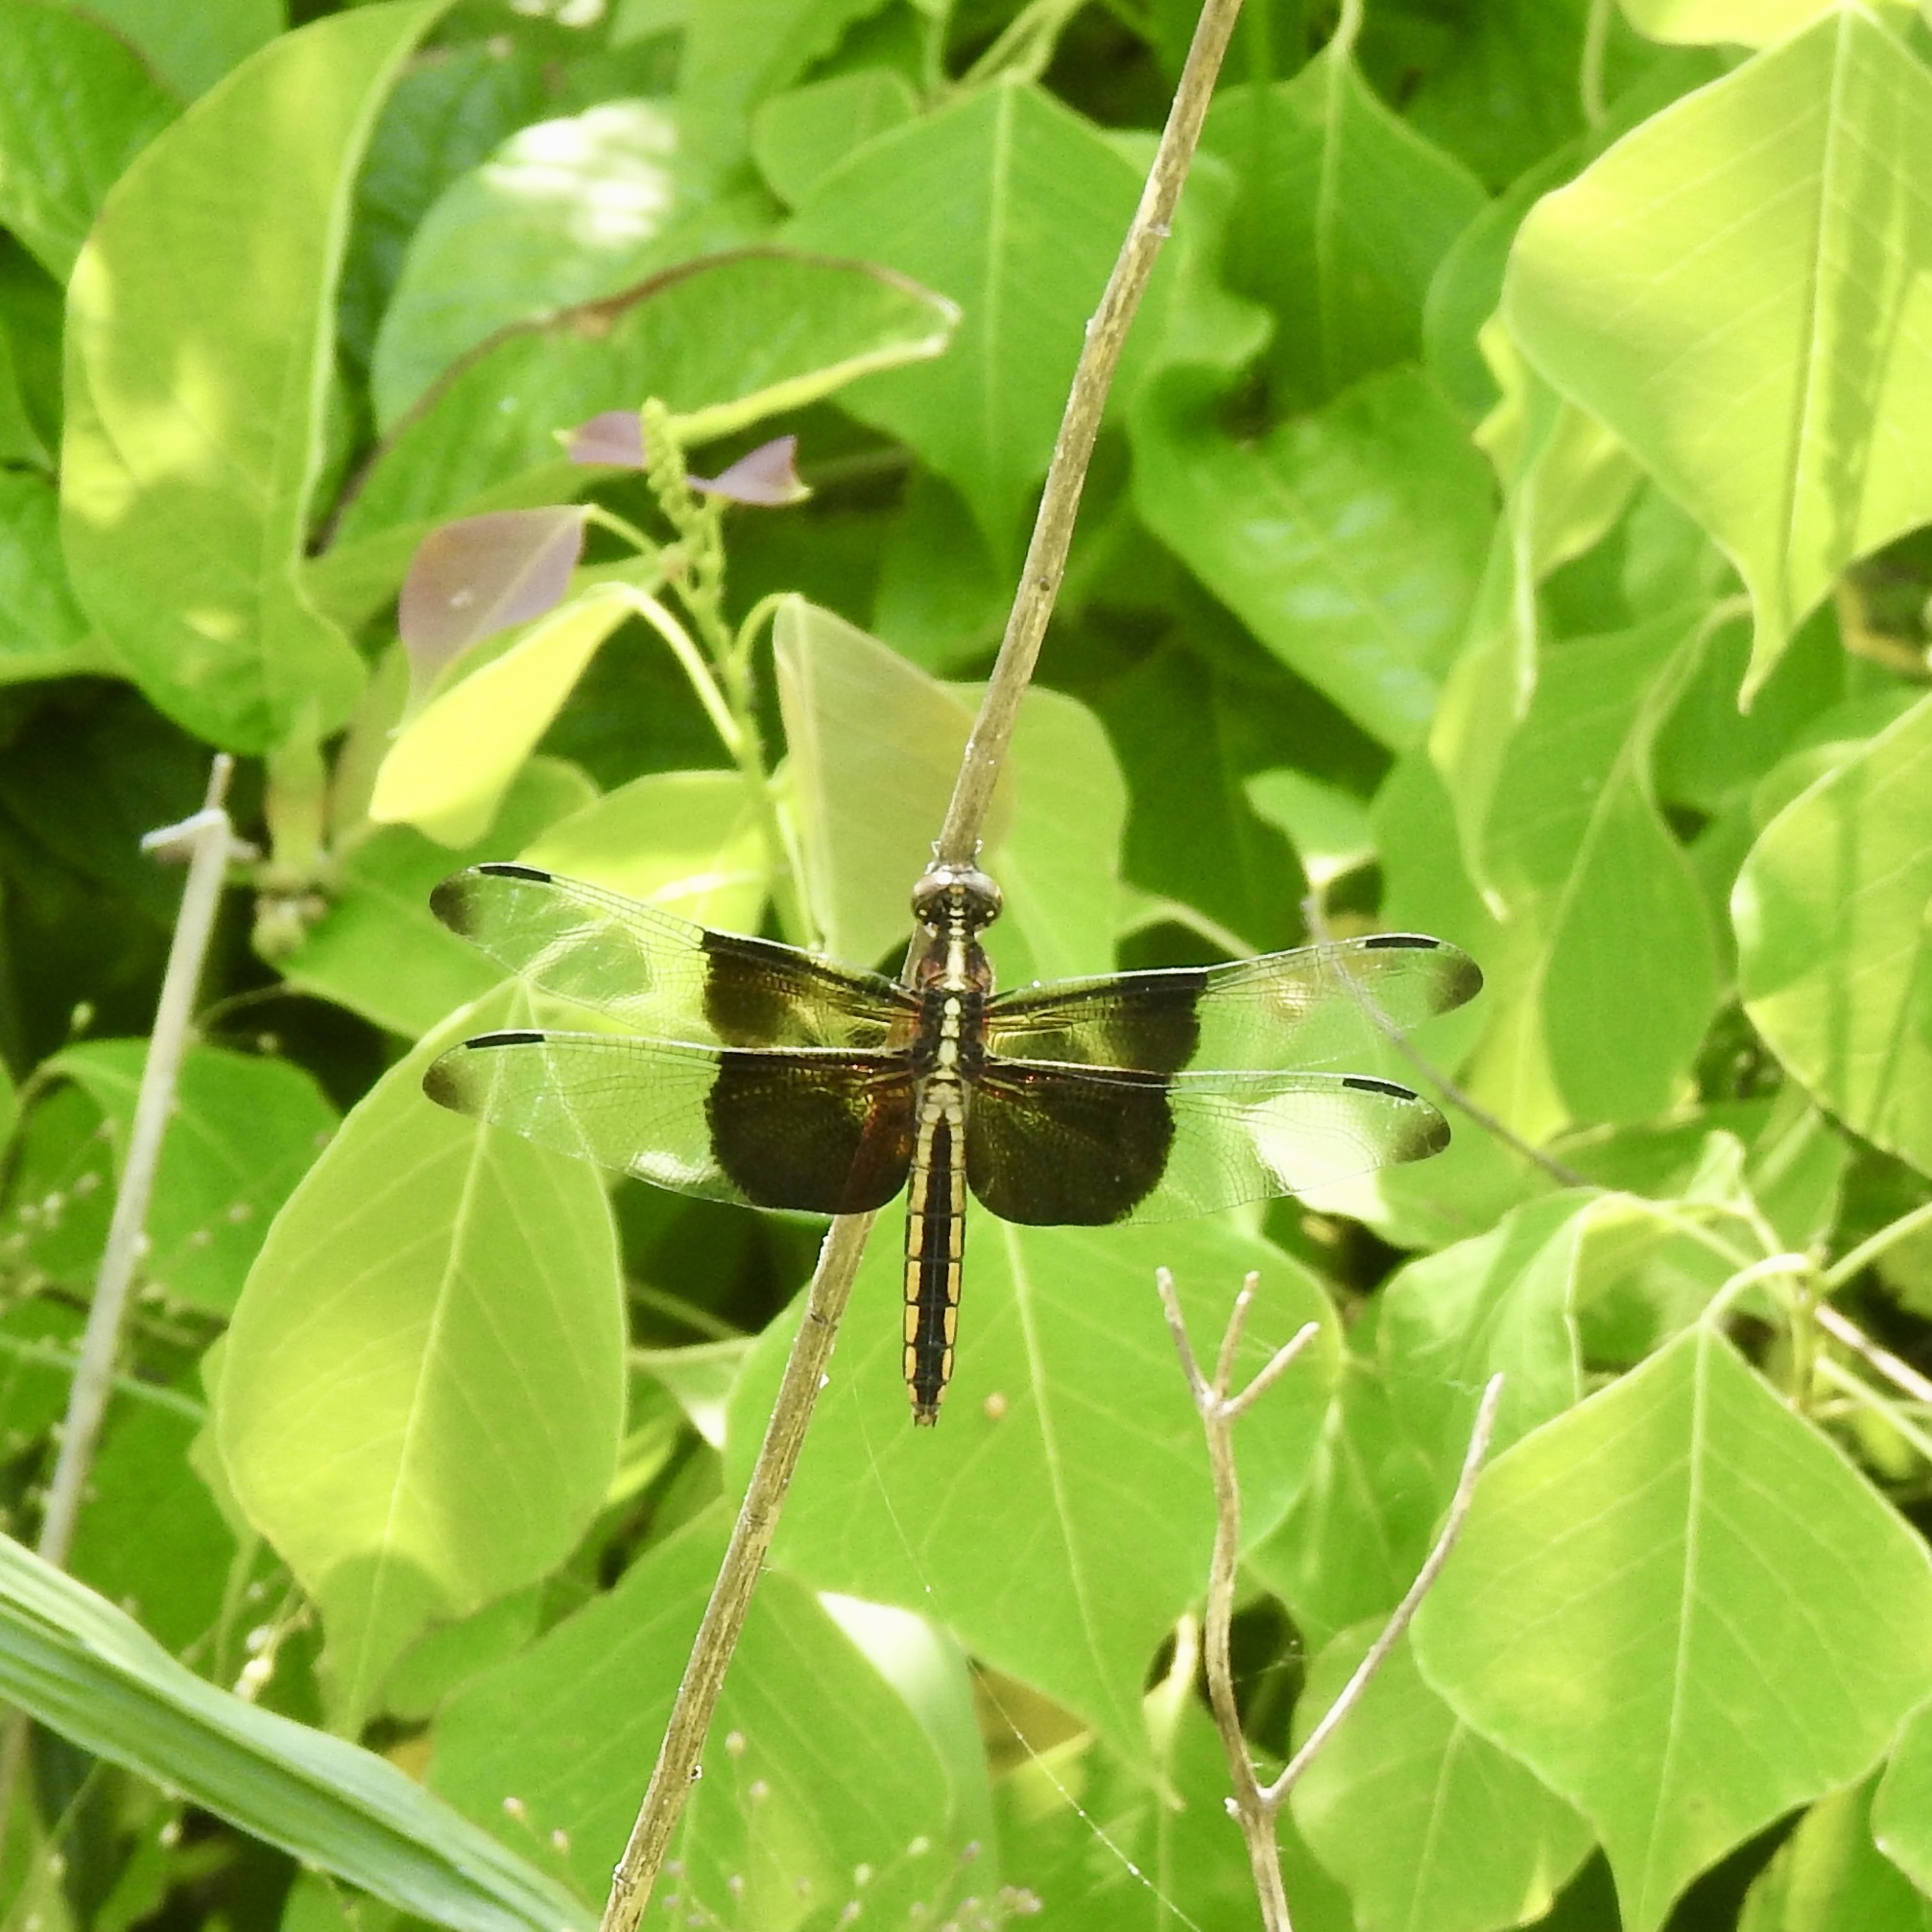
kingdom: Animalia
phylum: Arthropoda
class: Insecta
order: Odonata
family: Libellulidae
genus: Libellula
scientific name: Libellula luctuosa
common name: Widow skimmer
